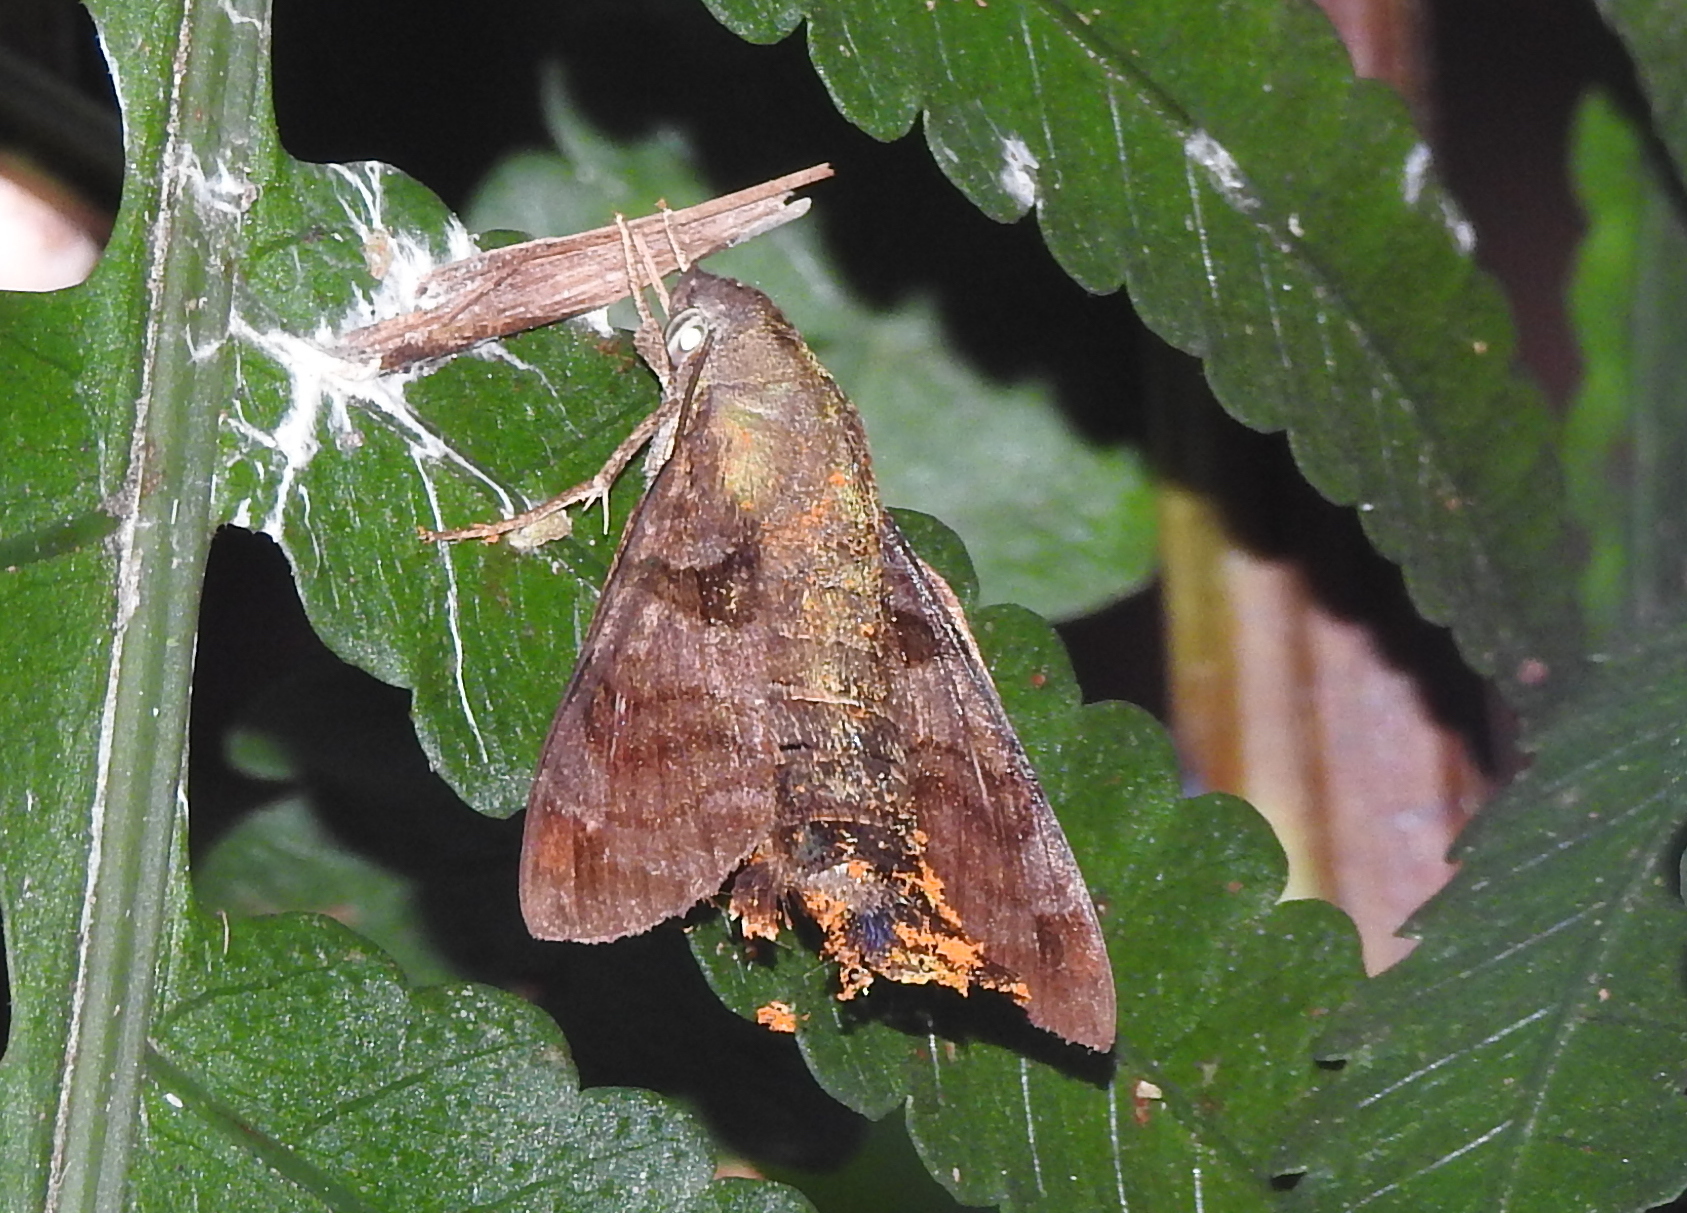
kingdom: Animalia
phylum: Arthropoda
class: Insecta
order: Lepidoptera
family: Sphingidae
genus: Macroglossum
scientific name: Macroglossum pyrrhosticta
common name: Hummingbird hawk moth
